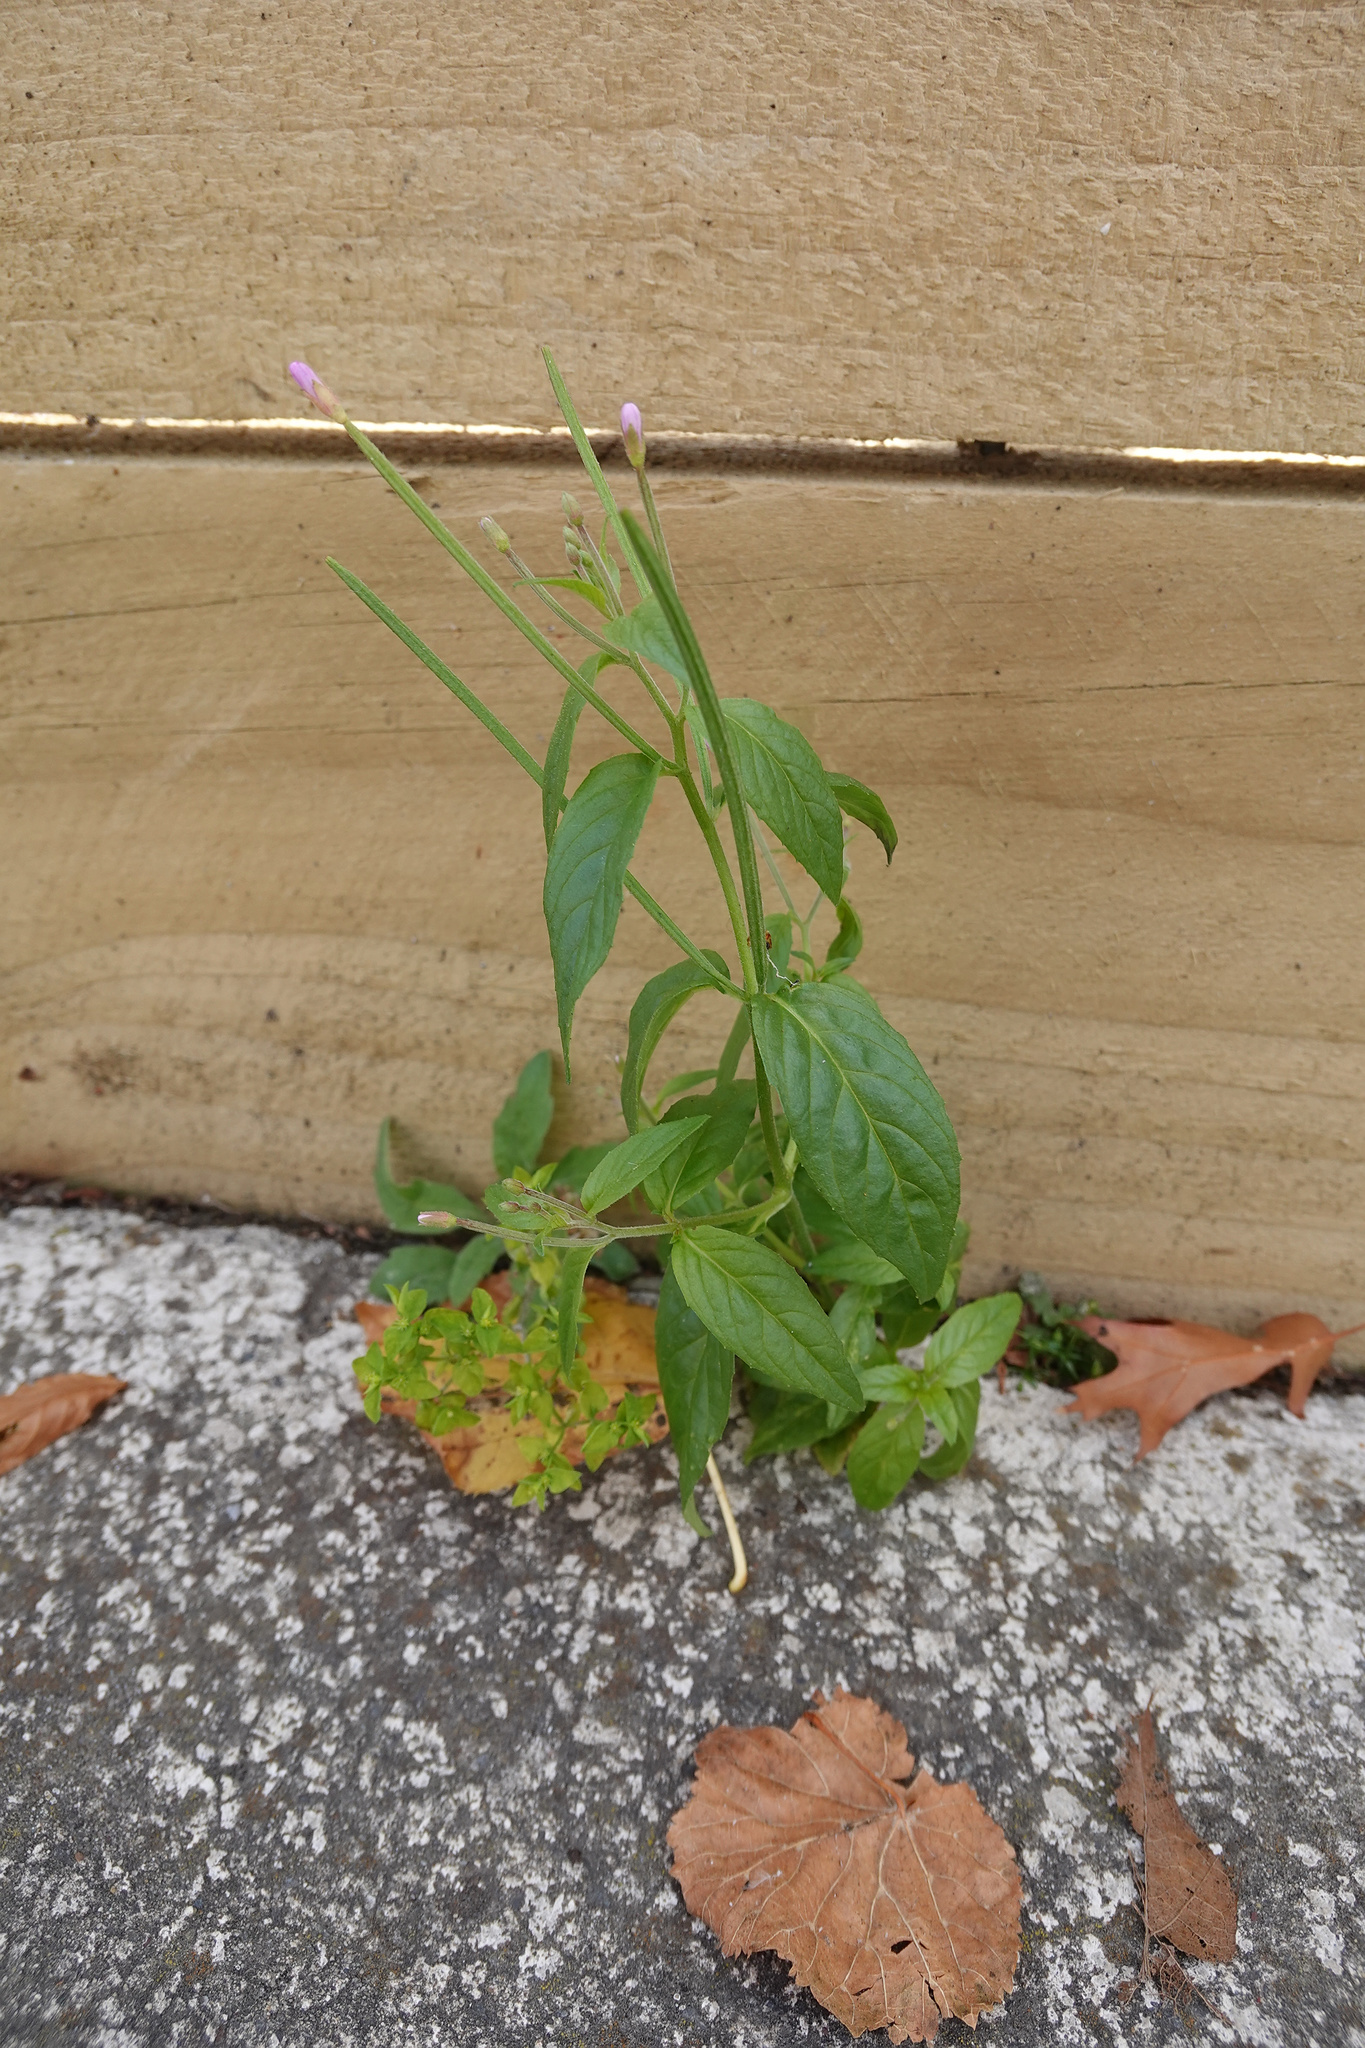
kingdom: Plantae
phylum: Tracheophyta
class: Magnoliopsida
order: Myrtales
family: Onagraceae
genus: Epilobium
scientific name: Epilobium ciliatum
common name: American willowherb
